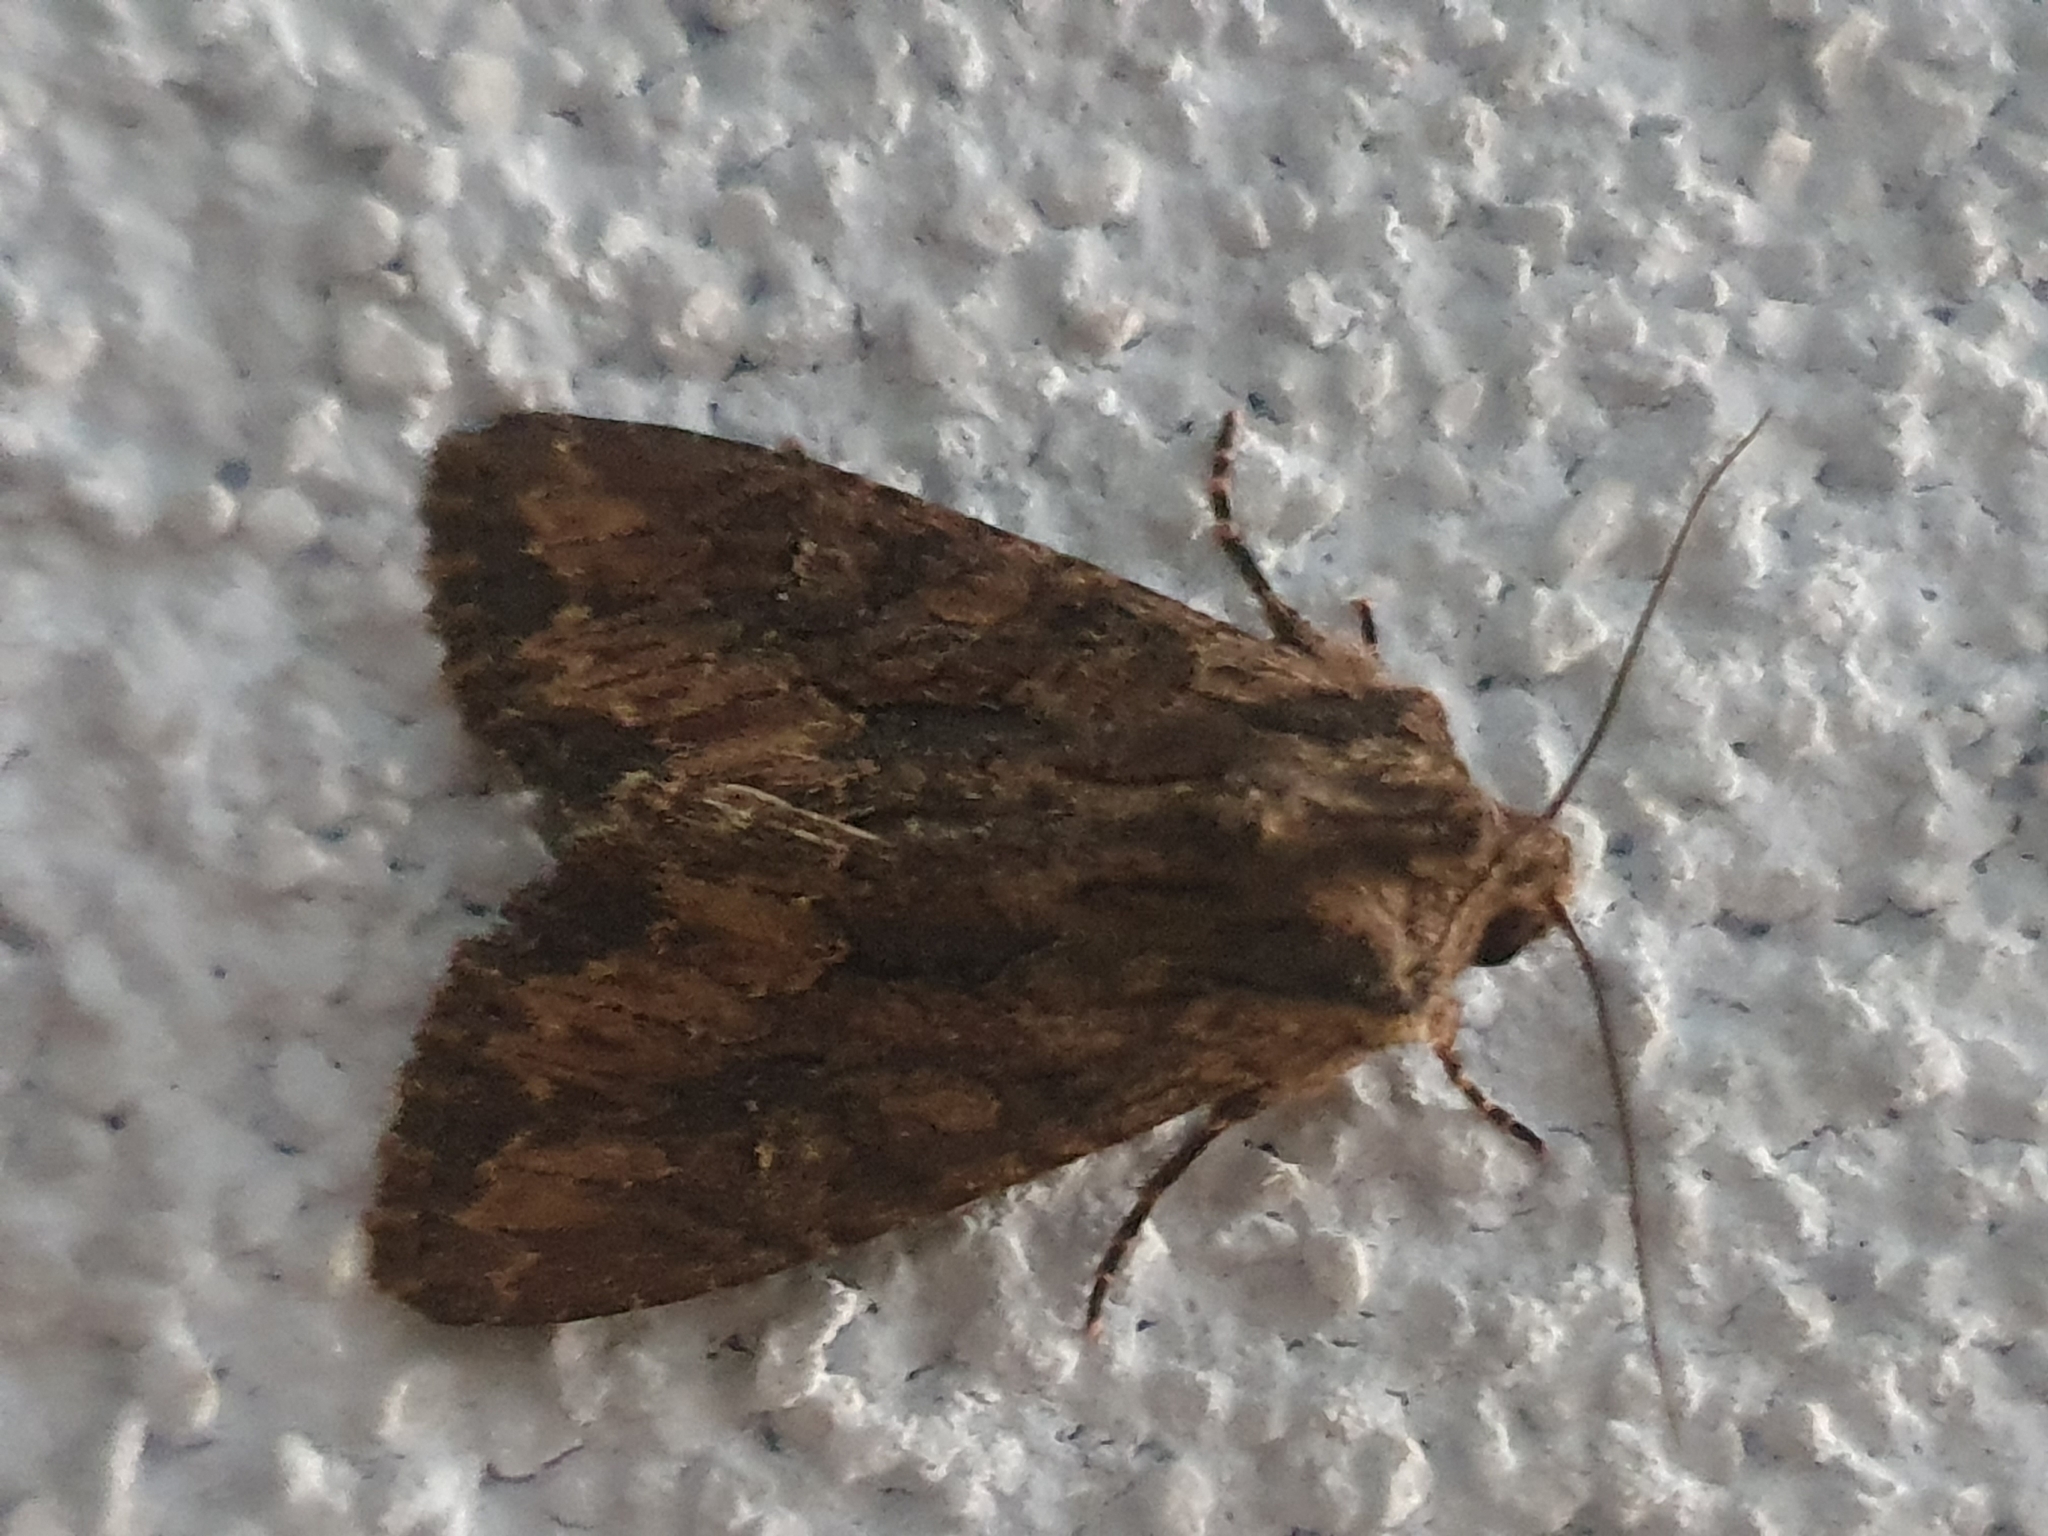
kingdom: Animalia
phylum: Arthropoda
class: Insecta
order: Lepidoptera
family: Noctuidae
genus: Mniotype
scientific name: Mniotype solieri
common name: Bedrule brocade
